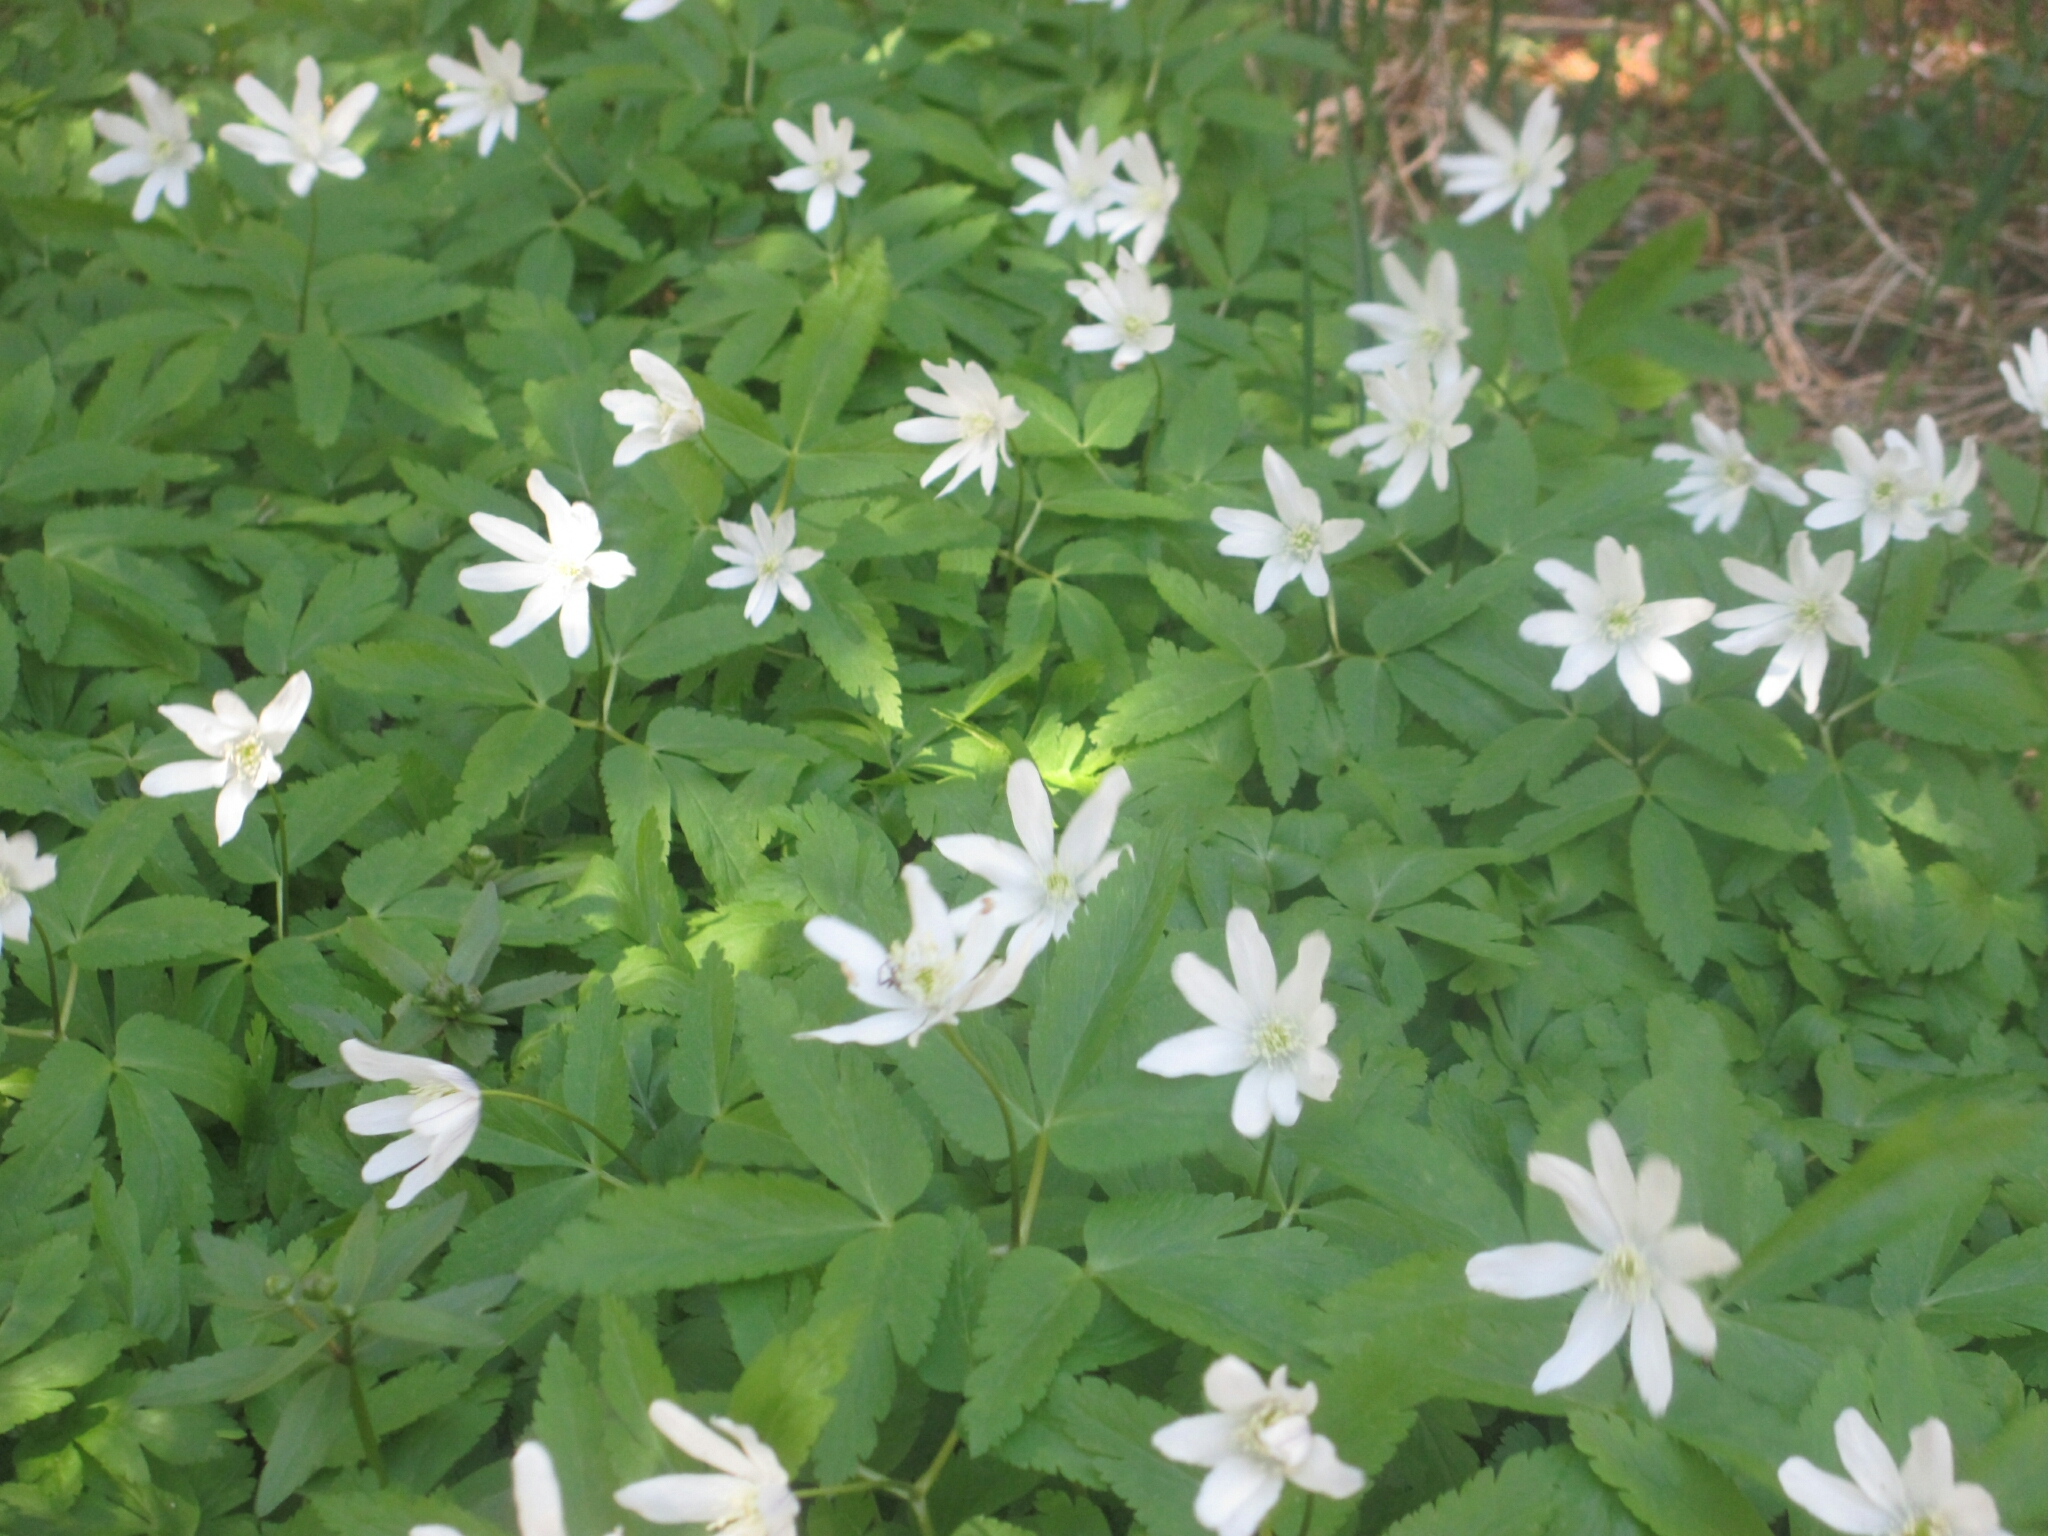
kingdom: Plantae
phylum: Tracheophyta
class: Magnoliopsida
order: Ranunculales
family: Ranunculaceae
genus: Anemone
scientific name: Anemone altaica
